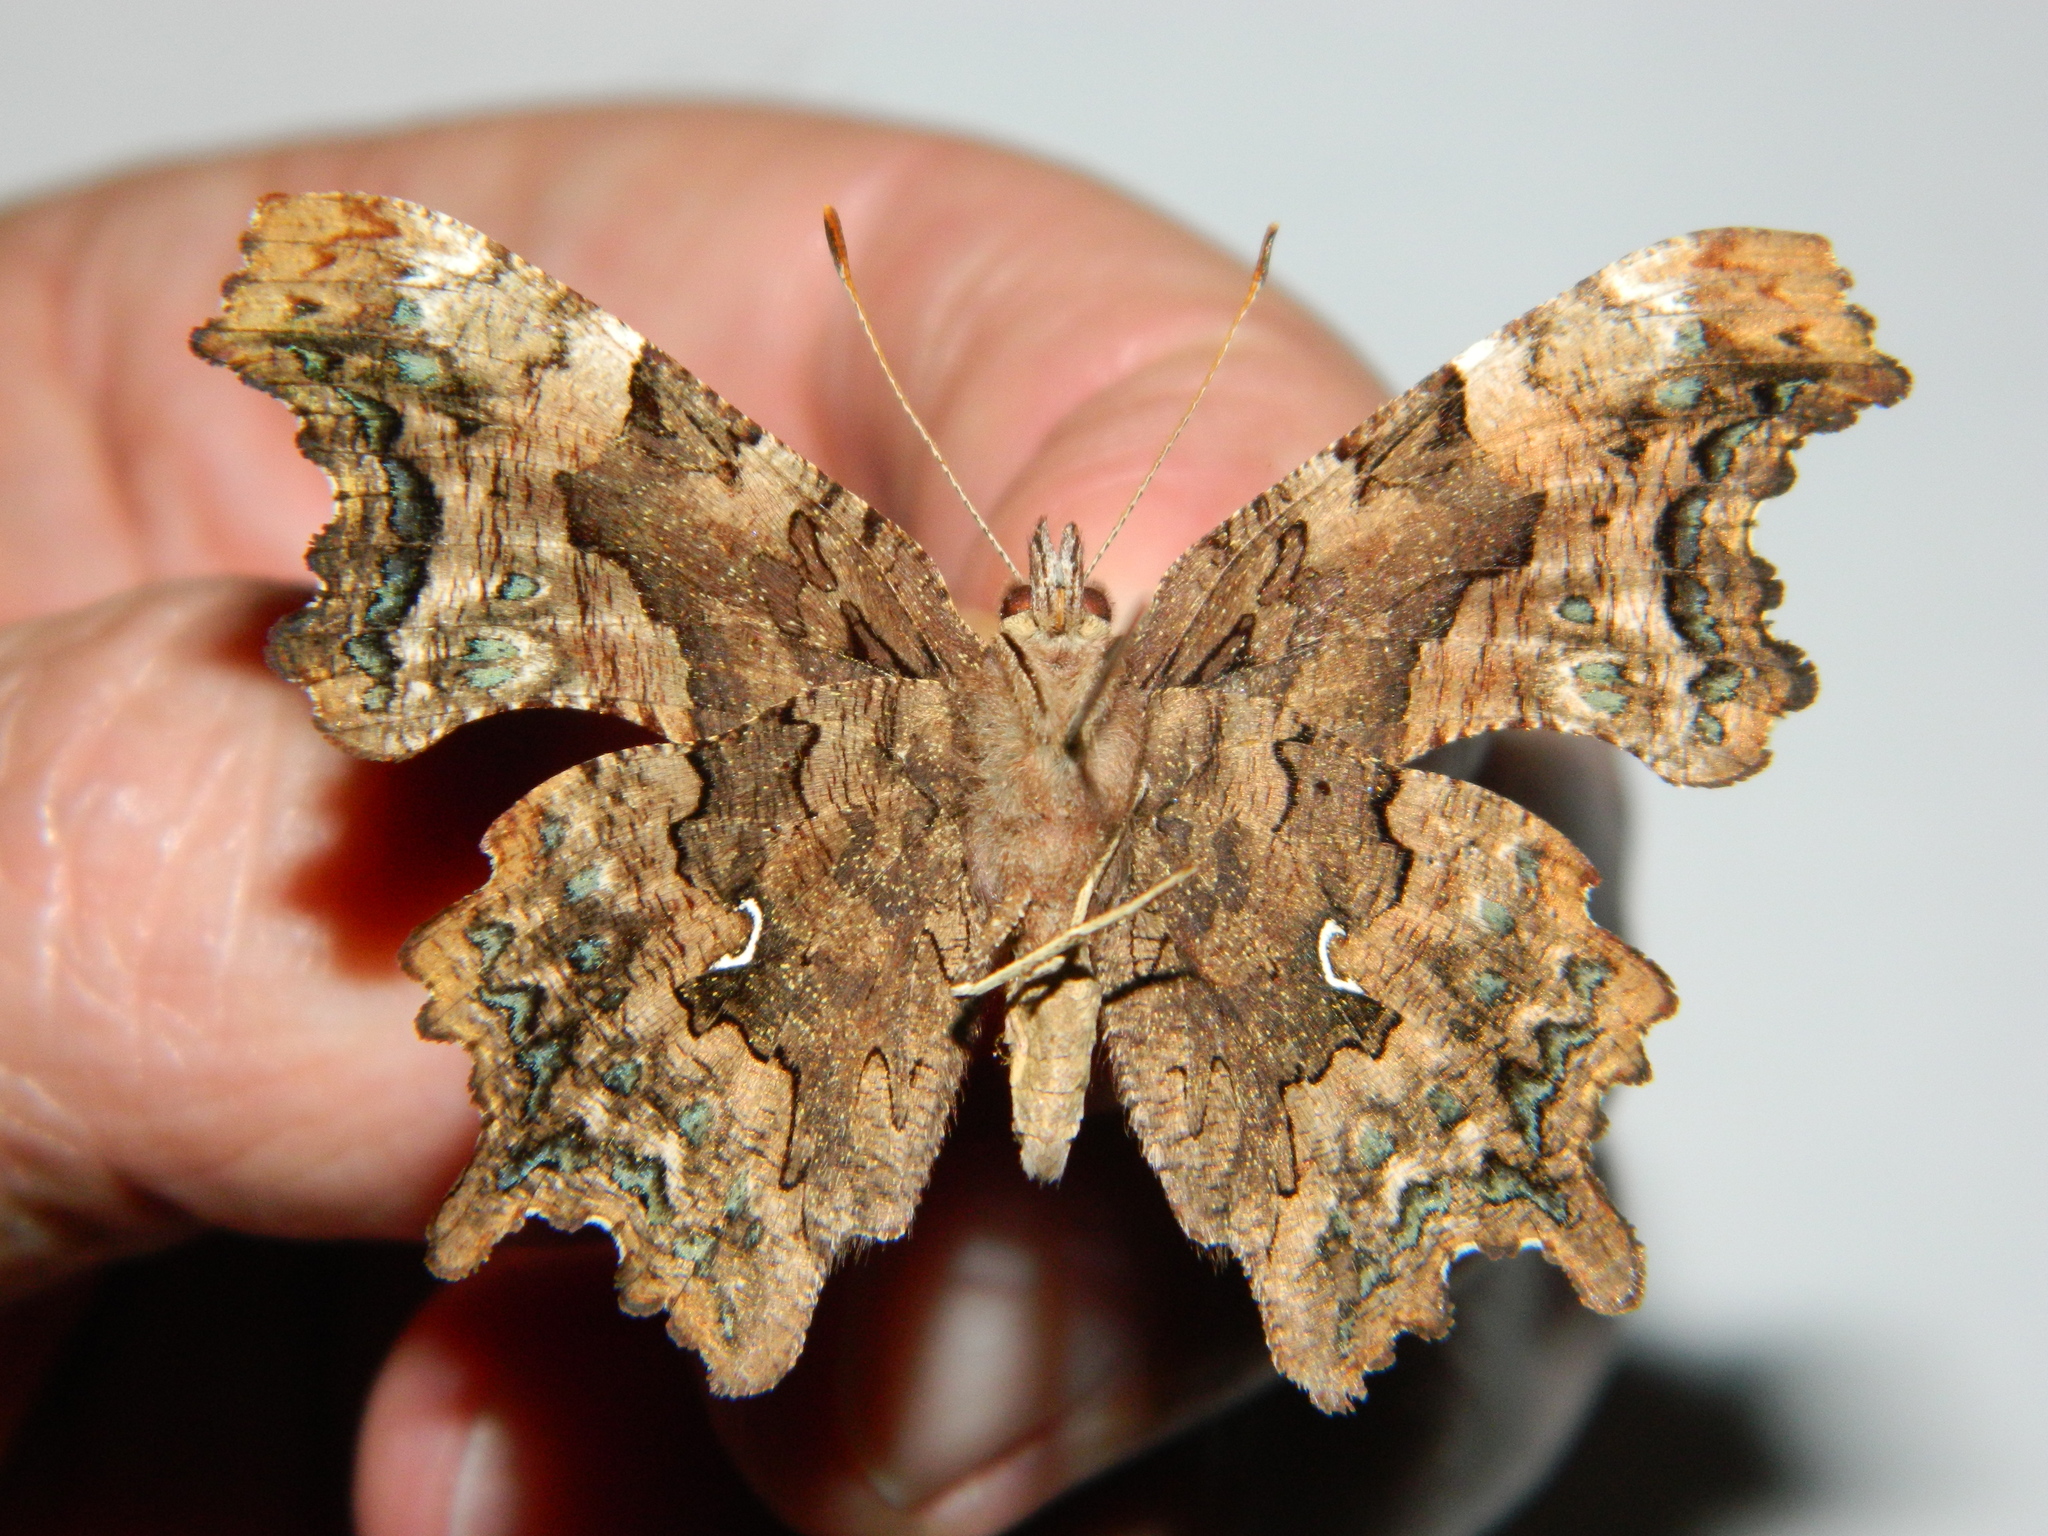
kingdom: Animalia
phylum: Arthropoda
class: Insecta
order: Lepidoptera
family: Nymphalidae
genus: Polygonia
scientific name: Polygonia faunus
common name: Green comma
